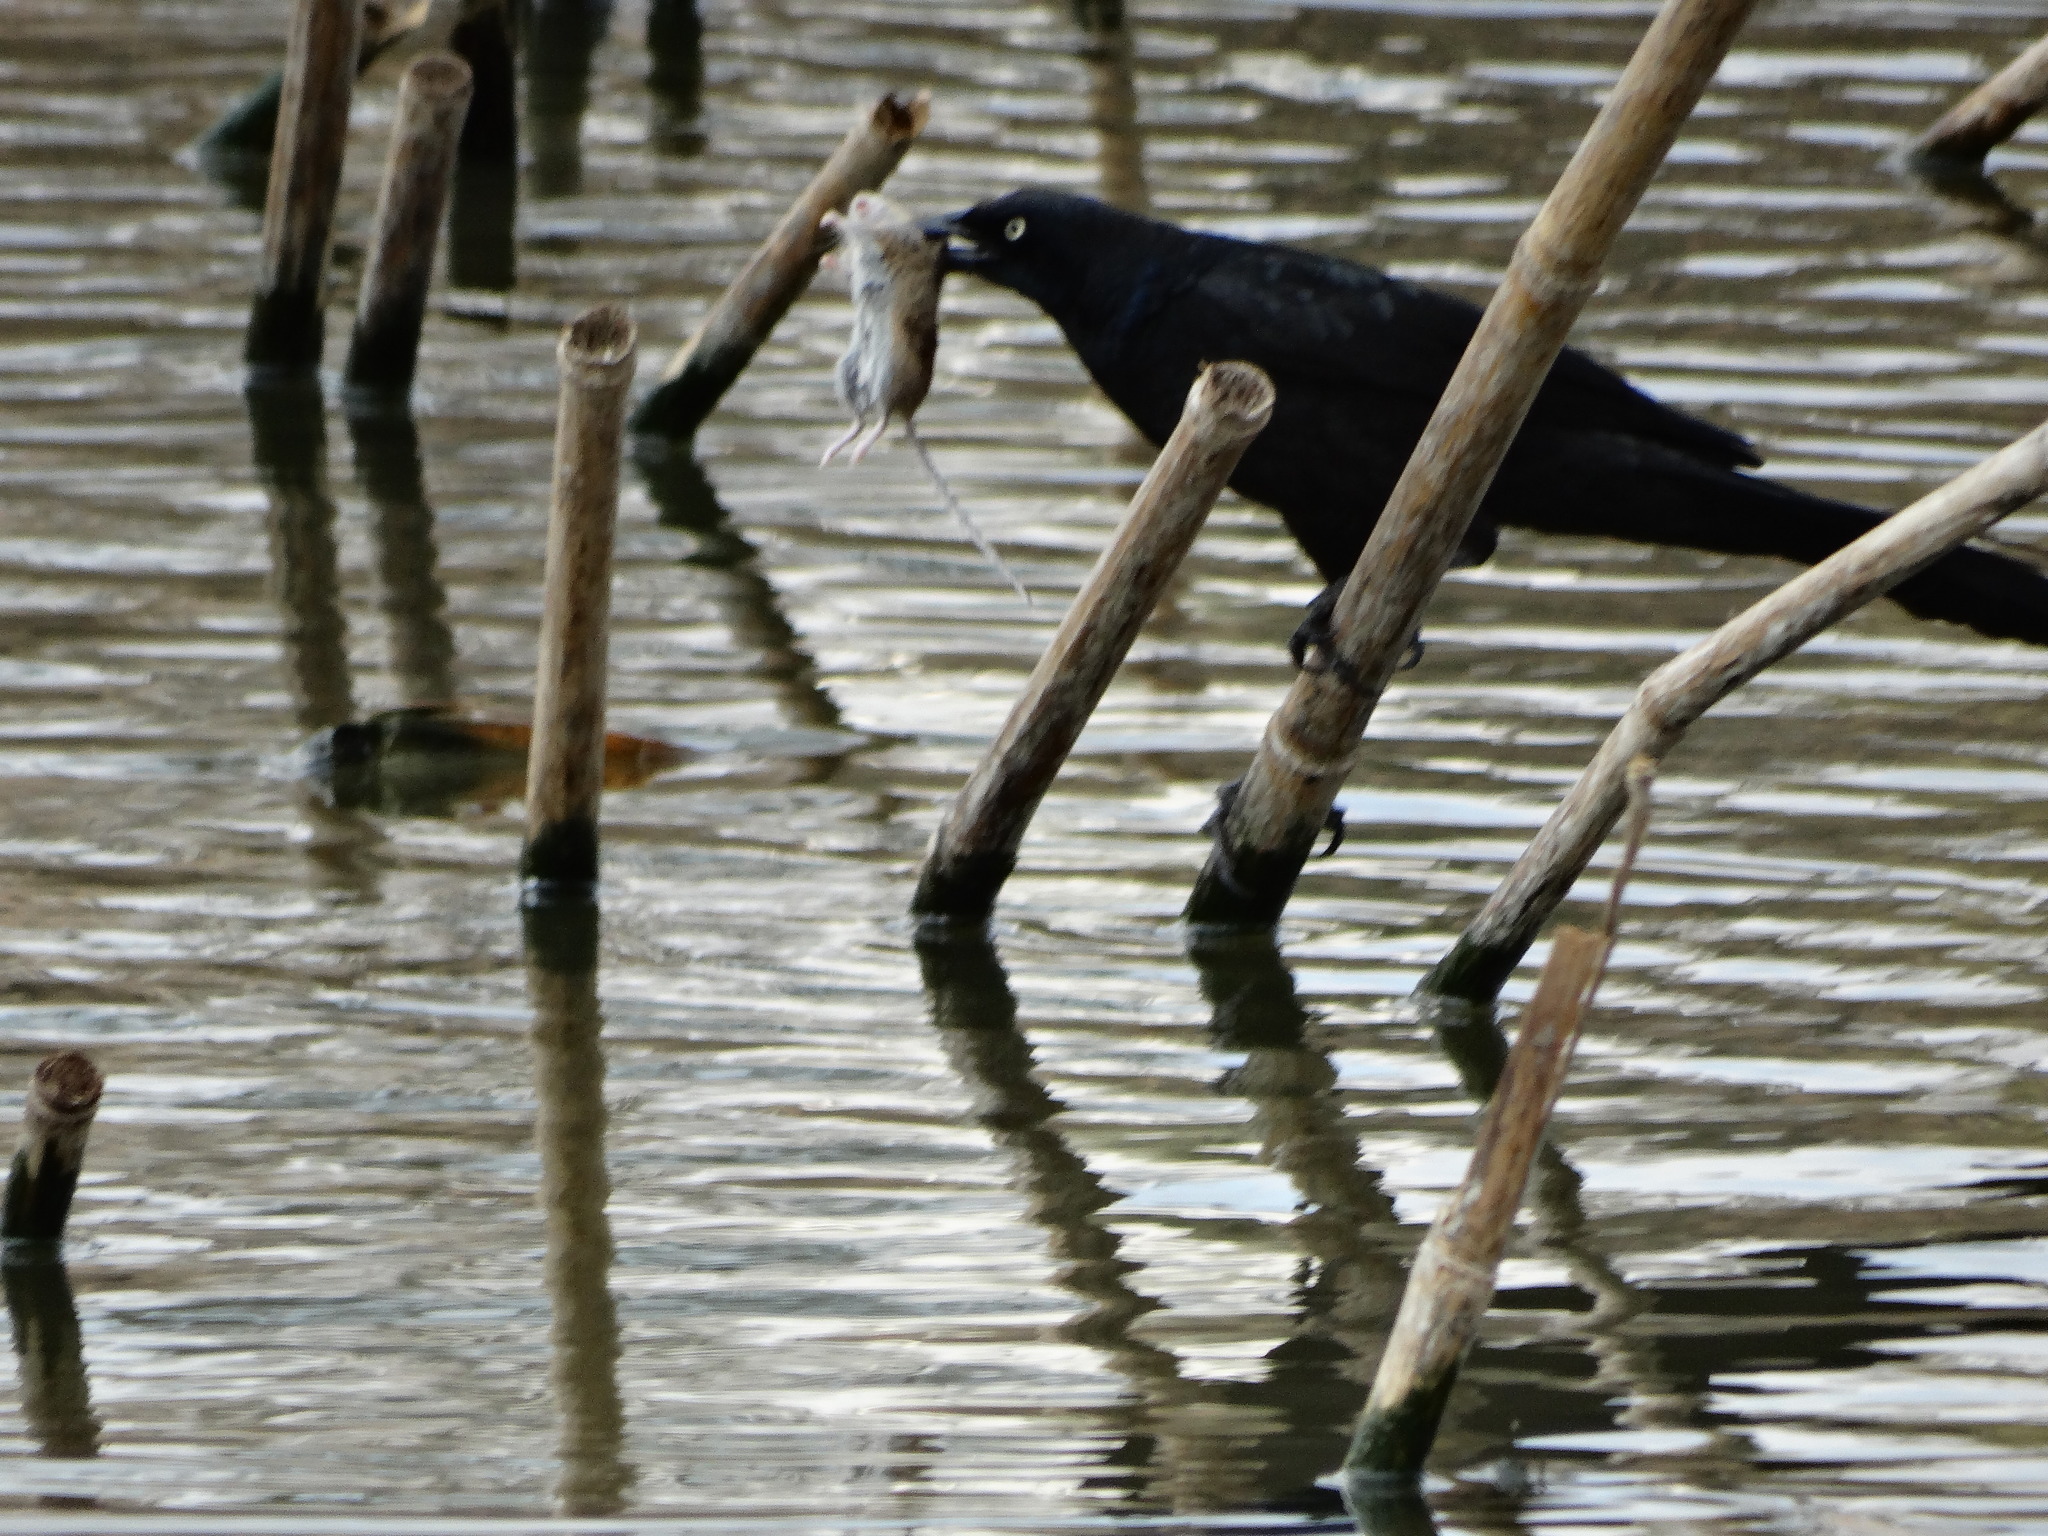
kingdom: Animalia
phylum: Chordata
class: Aves
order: Passeriformes
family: Icteridae
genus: Quiscalus
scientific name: Quiscalus mexicanus
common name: Great-tailed grackle
